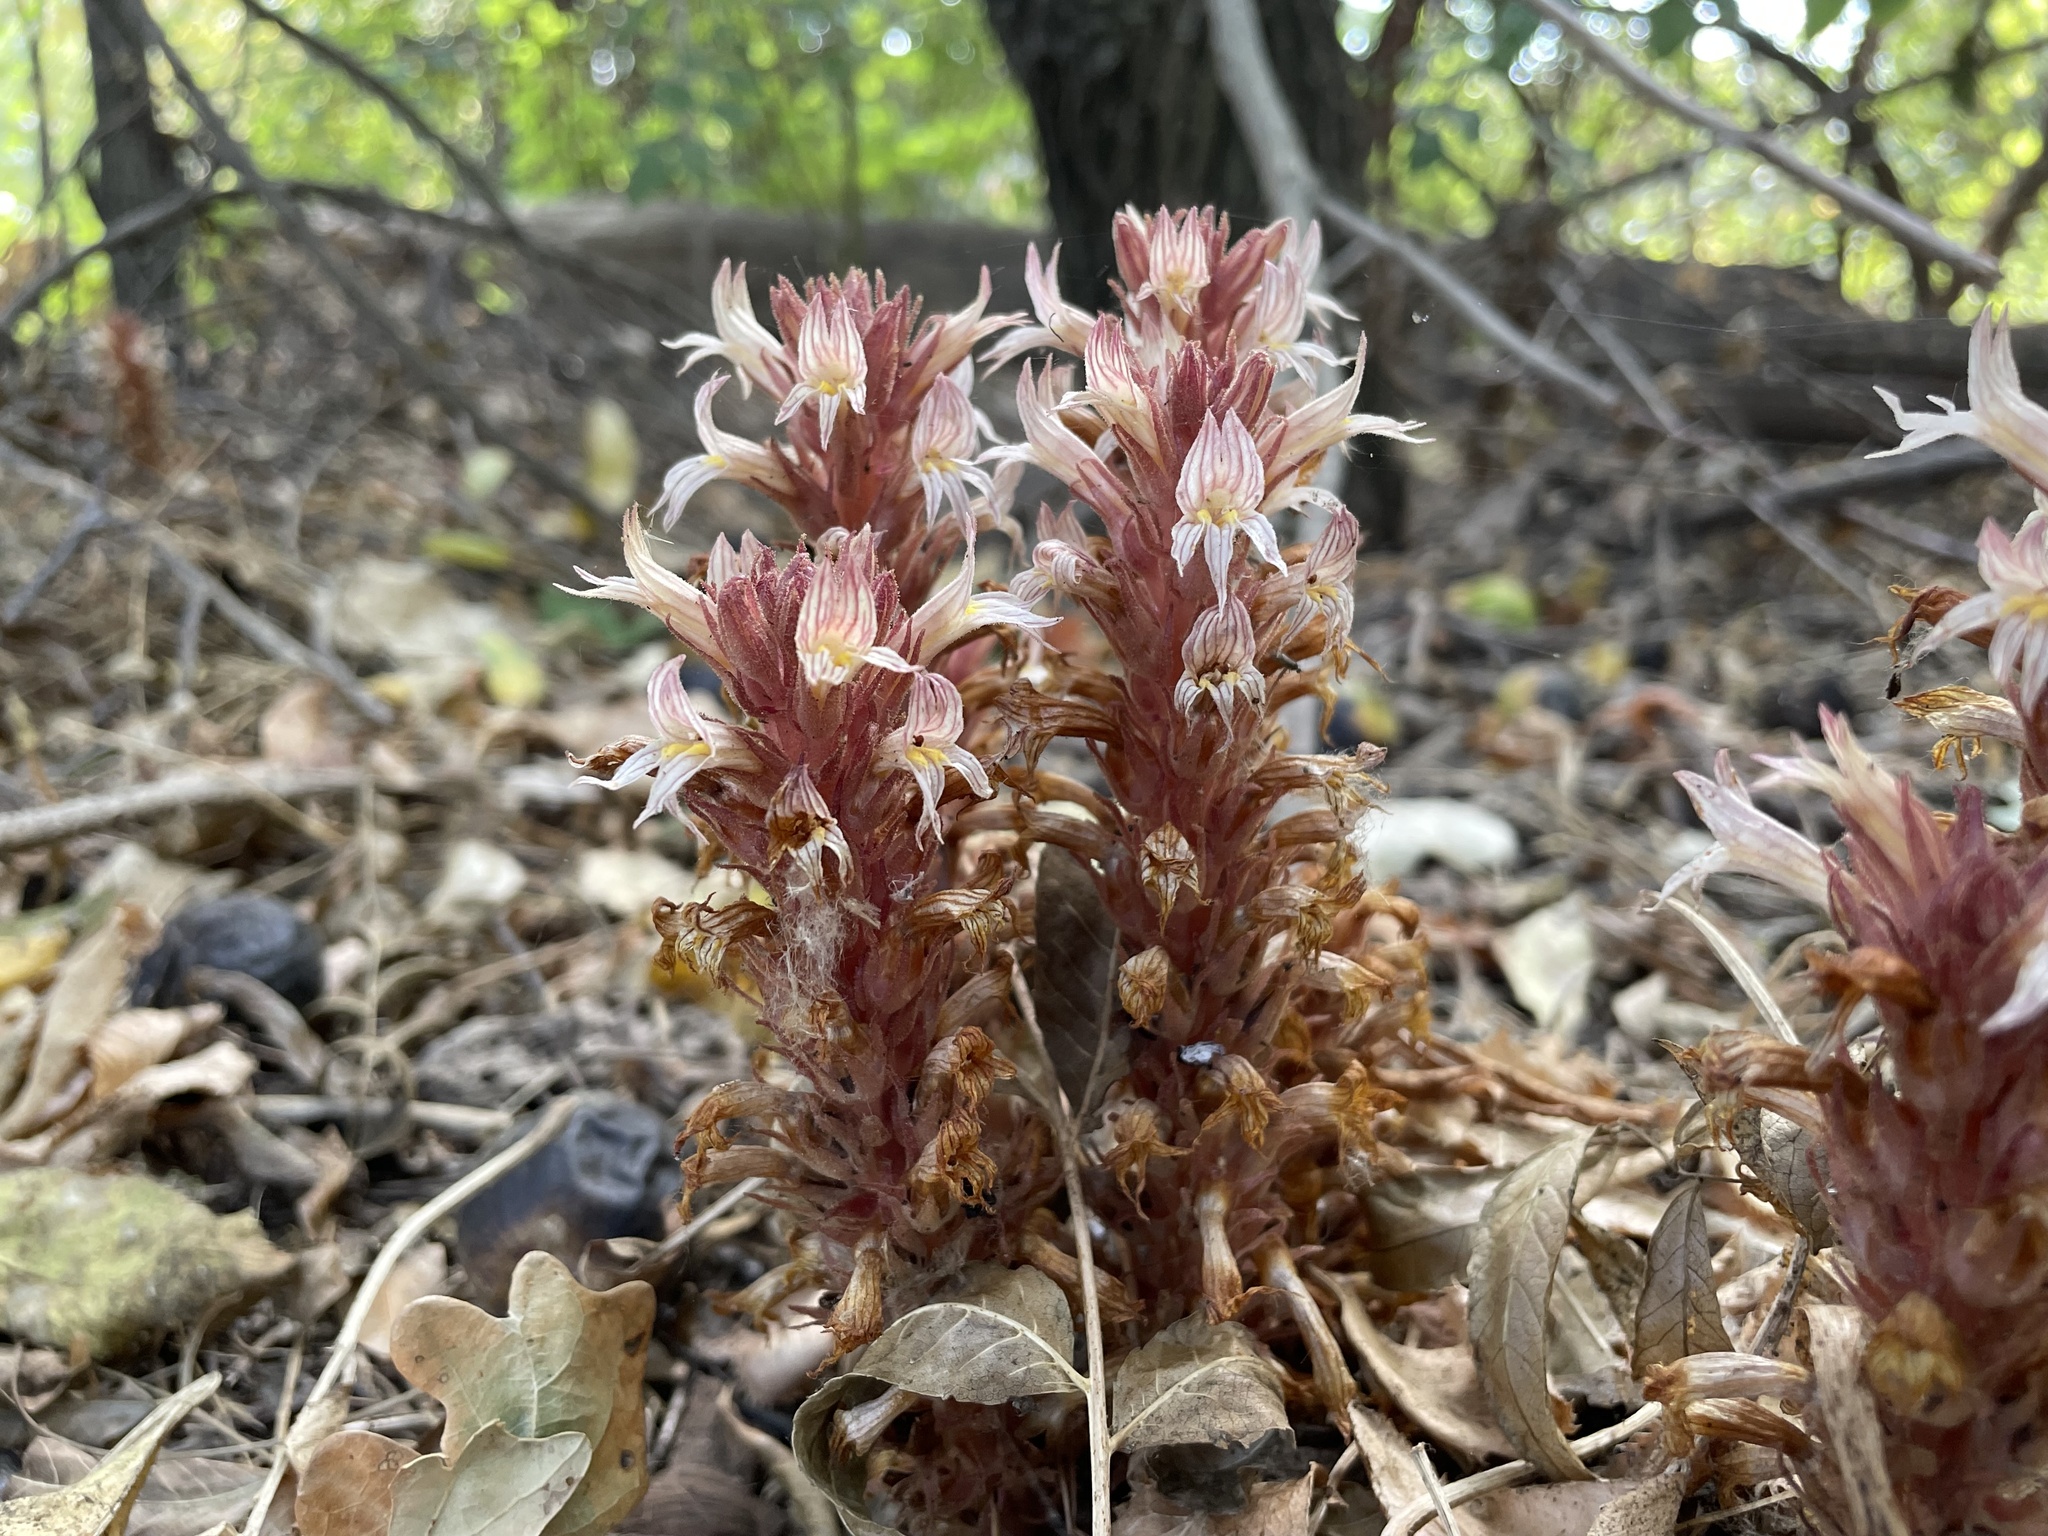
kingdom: Plantae
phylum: Tracheophyta
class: Magnoliopsida
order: Lamiales
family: Orobanchaceae
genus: Aphyllon
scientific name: Aphyllon vallicolum
